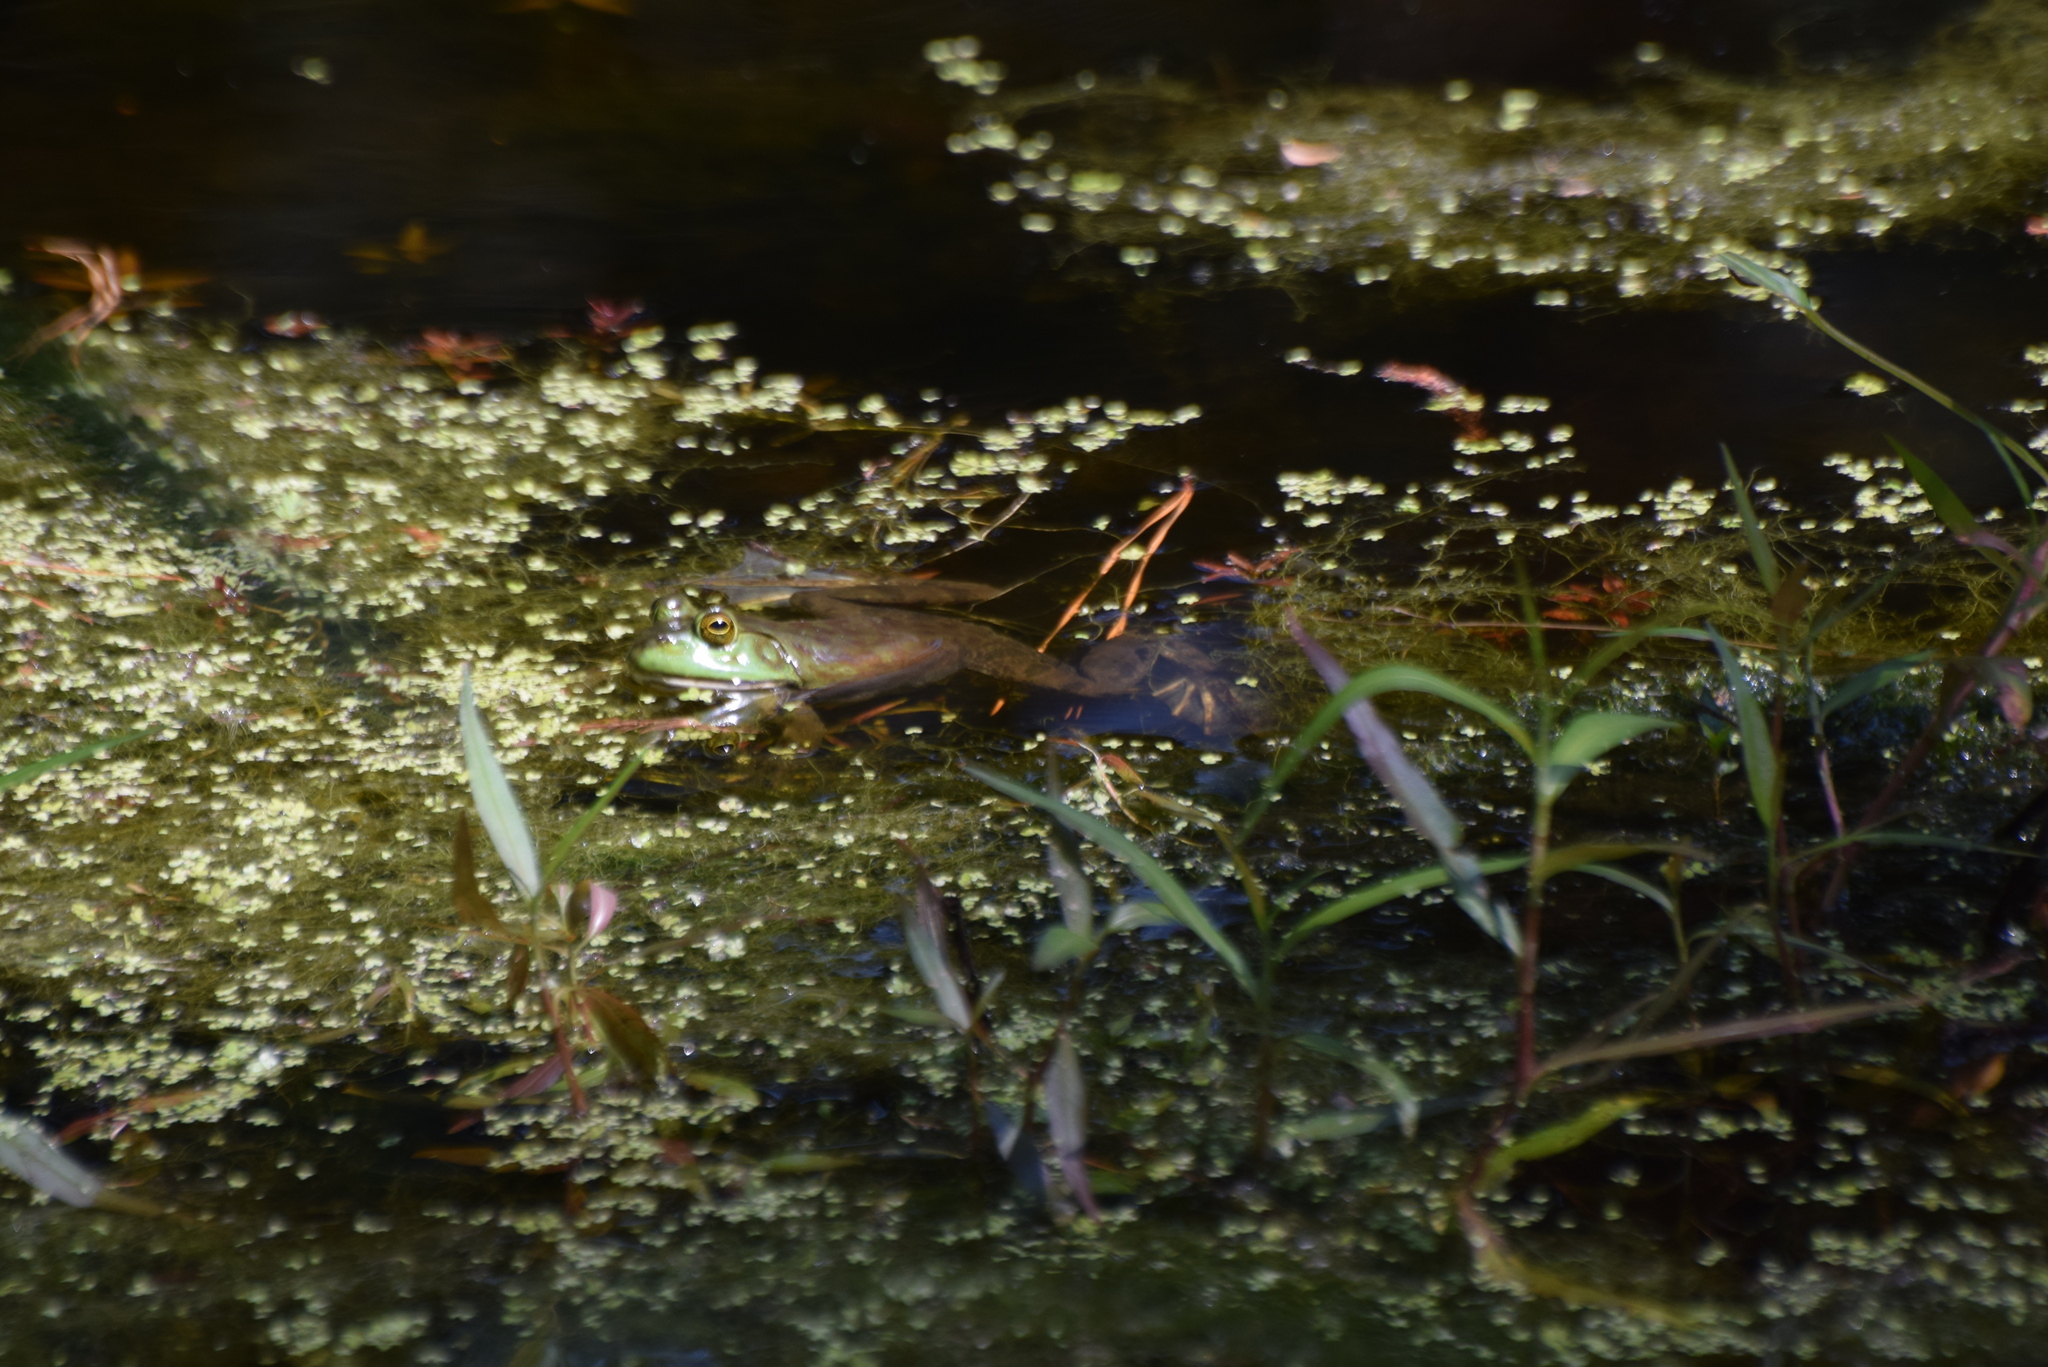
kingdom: Animalia
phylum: Chordata
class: Amphibia
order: Anura
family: Ranidae
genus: Lithobates
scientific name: Lithobates catesbeianus
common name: American bullfrog
